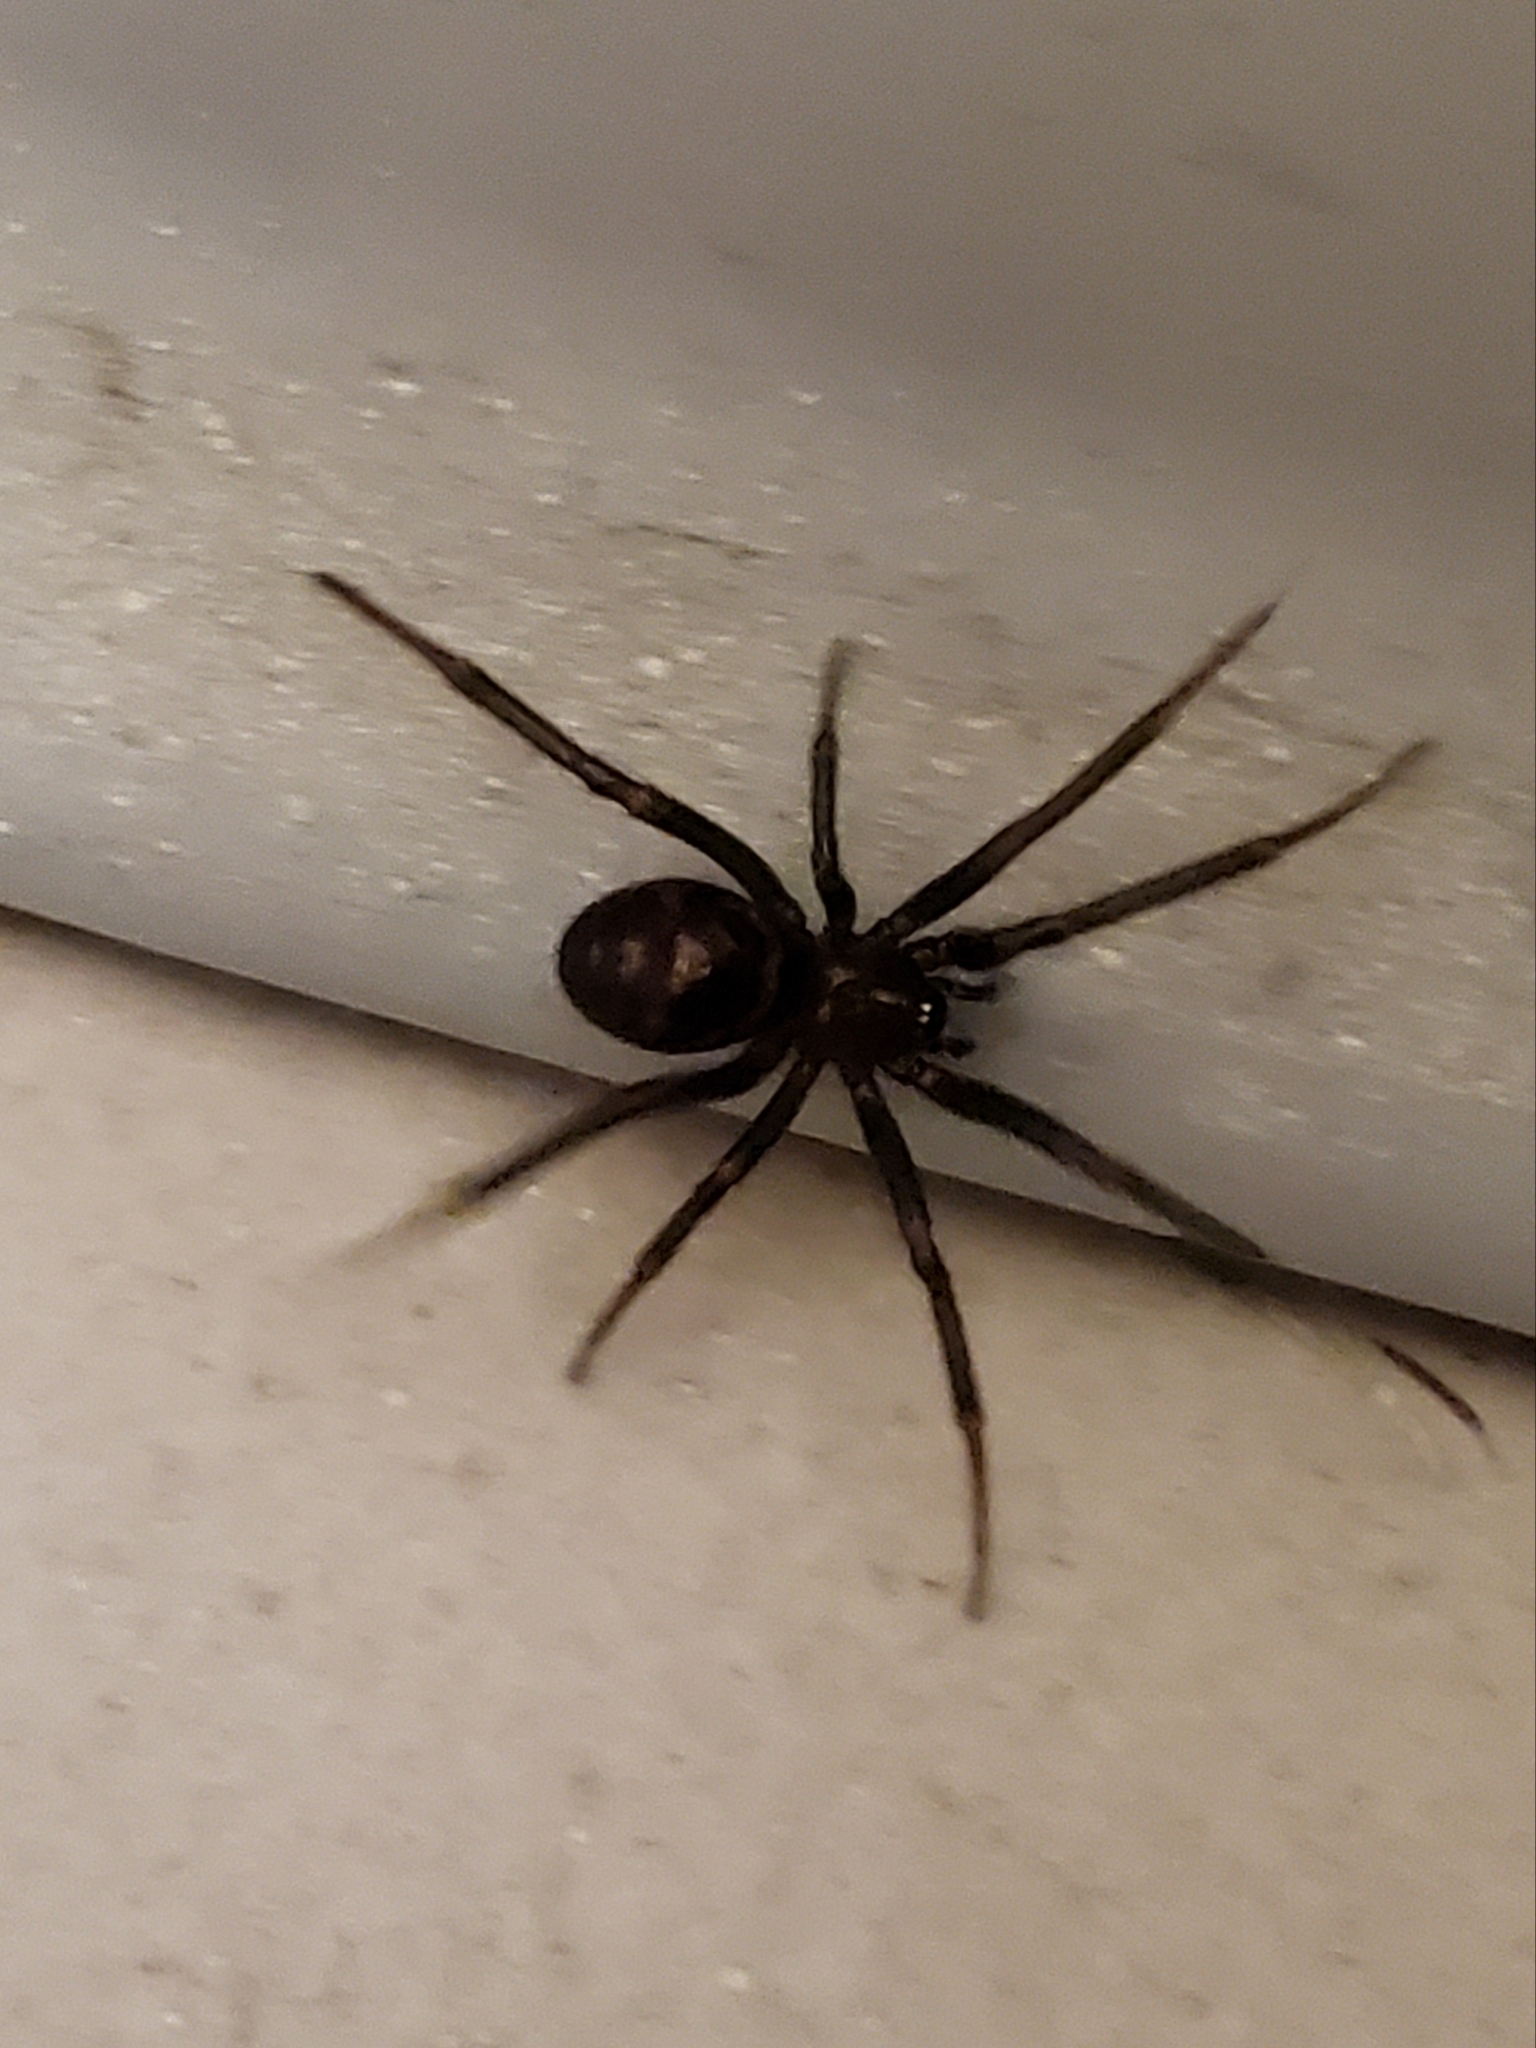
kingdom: Animalia
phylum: Arthropoda
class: Arachnida
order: Araneae
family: Theridiidae
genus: Steatoda
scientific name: Steatoda grossa
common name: False black widow
